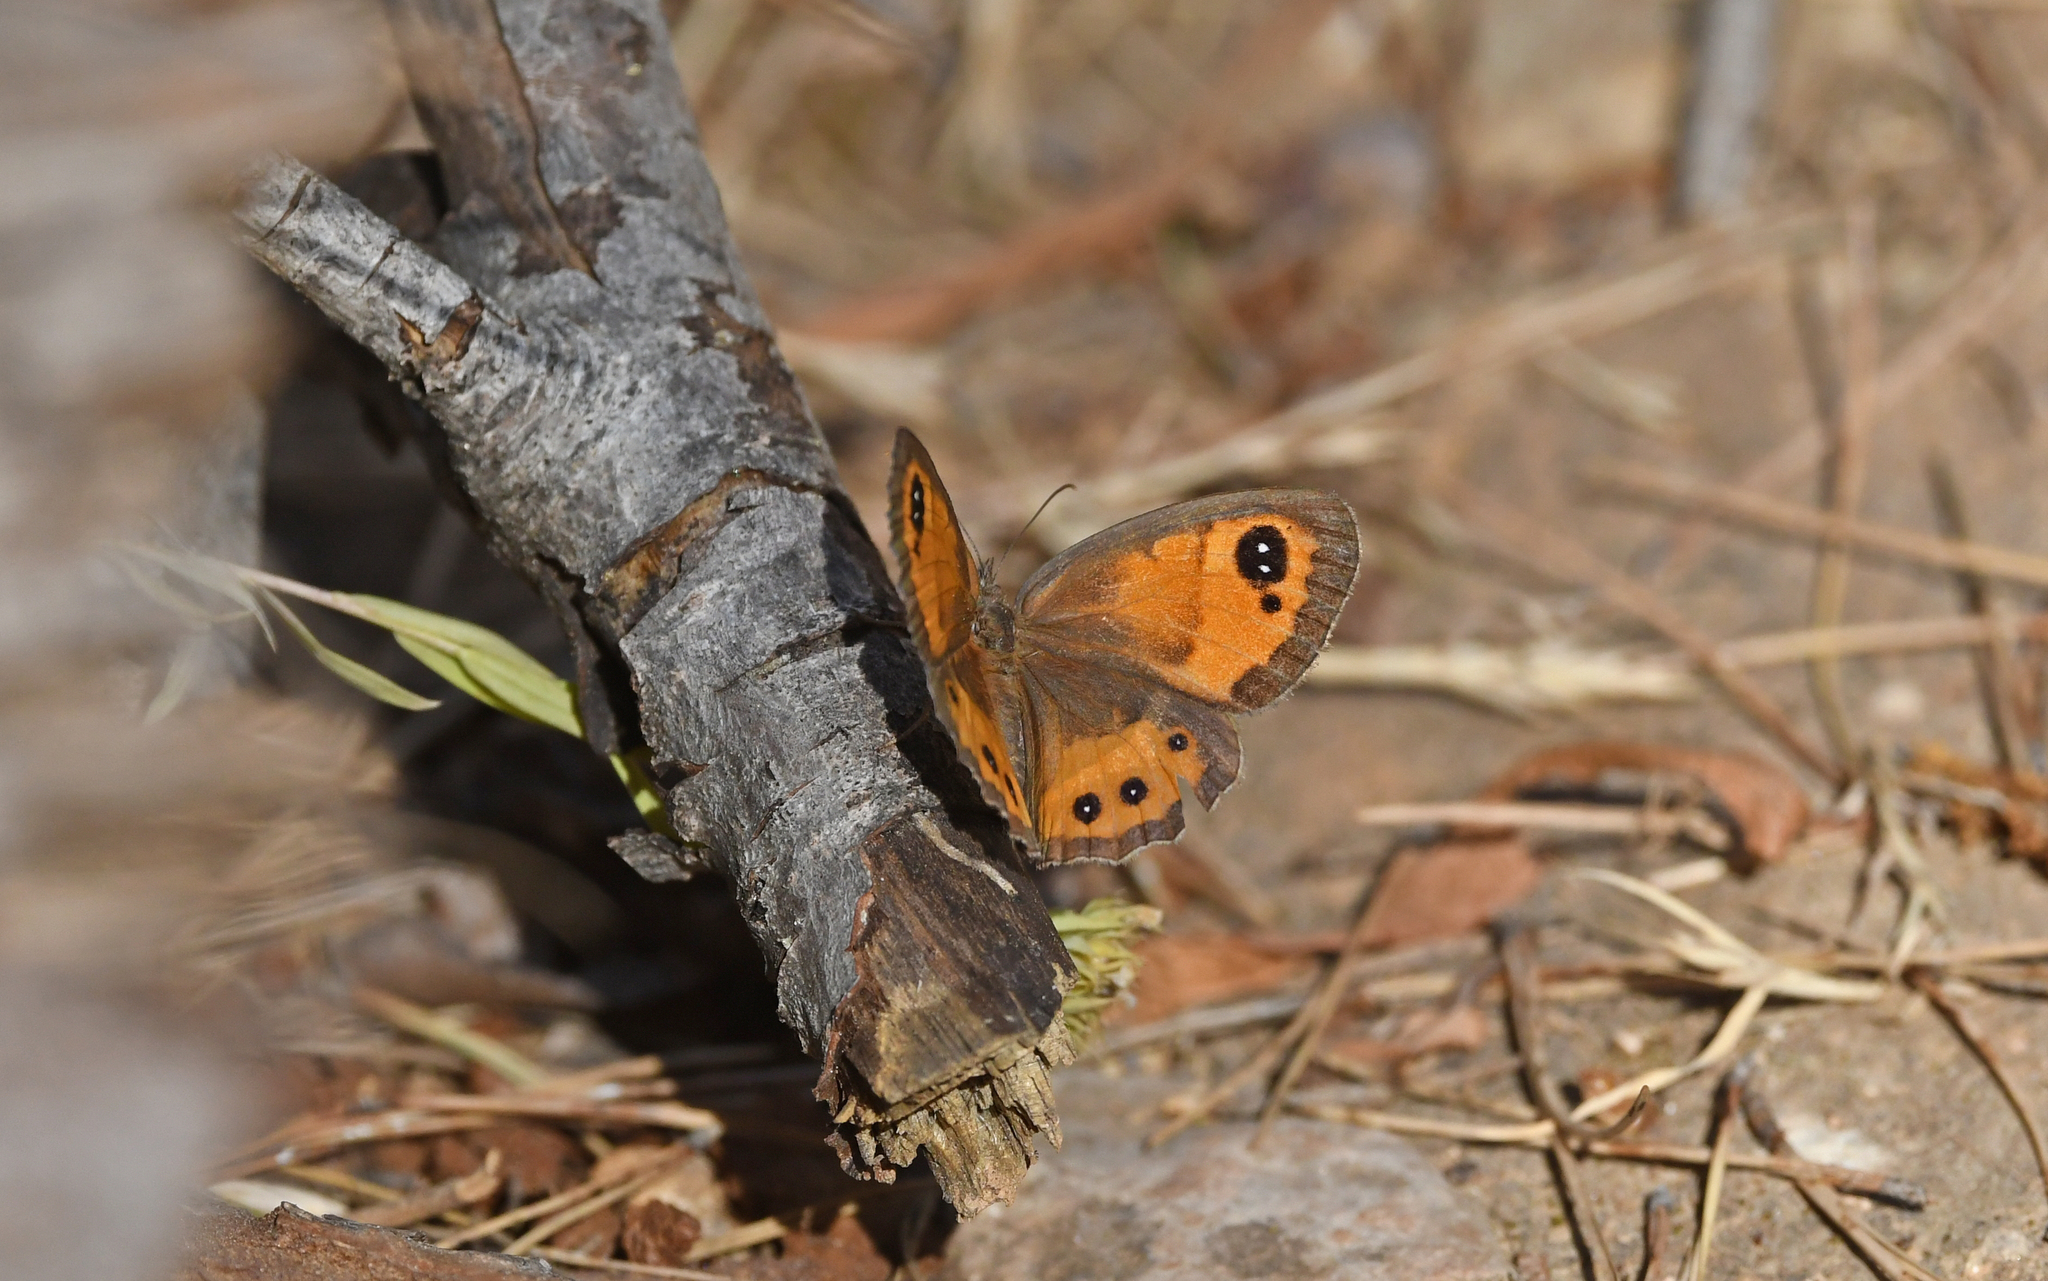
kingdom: Animalia
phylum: Arthropoda
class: Insecta
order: Lepidoptera
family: Nymphalidae
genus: Pyronia
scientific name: Pyronia bathseba
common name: Spanish gatekeeper
